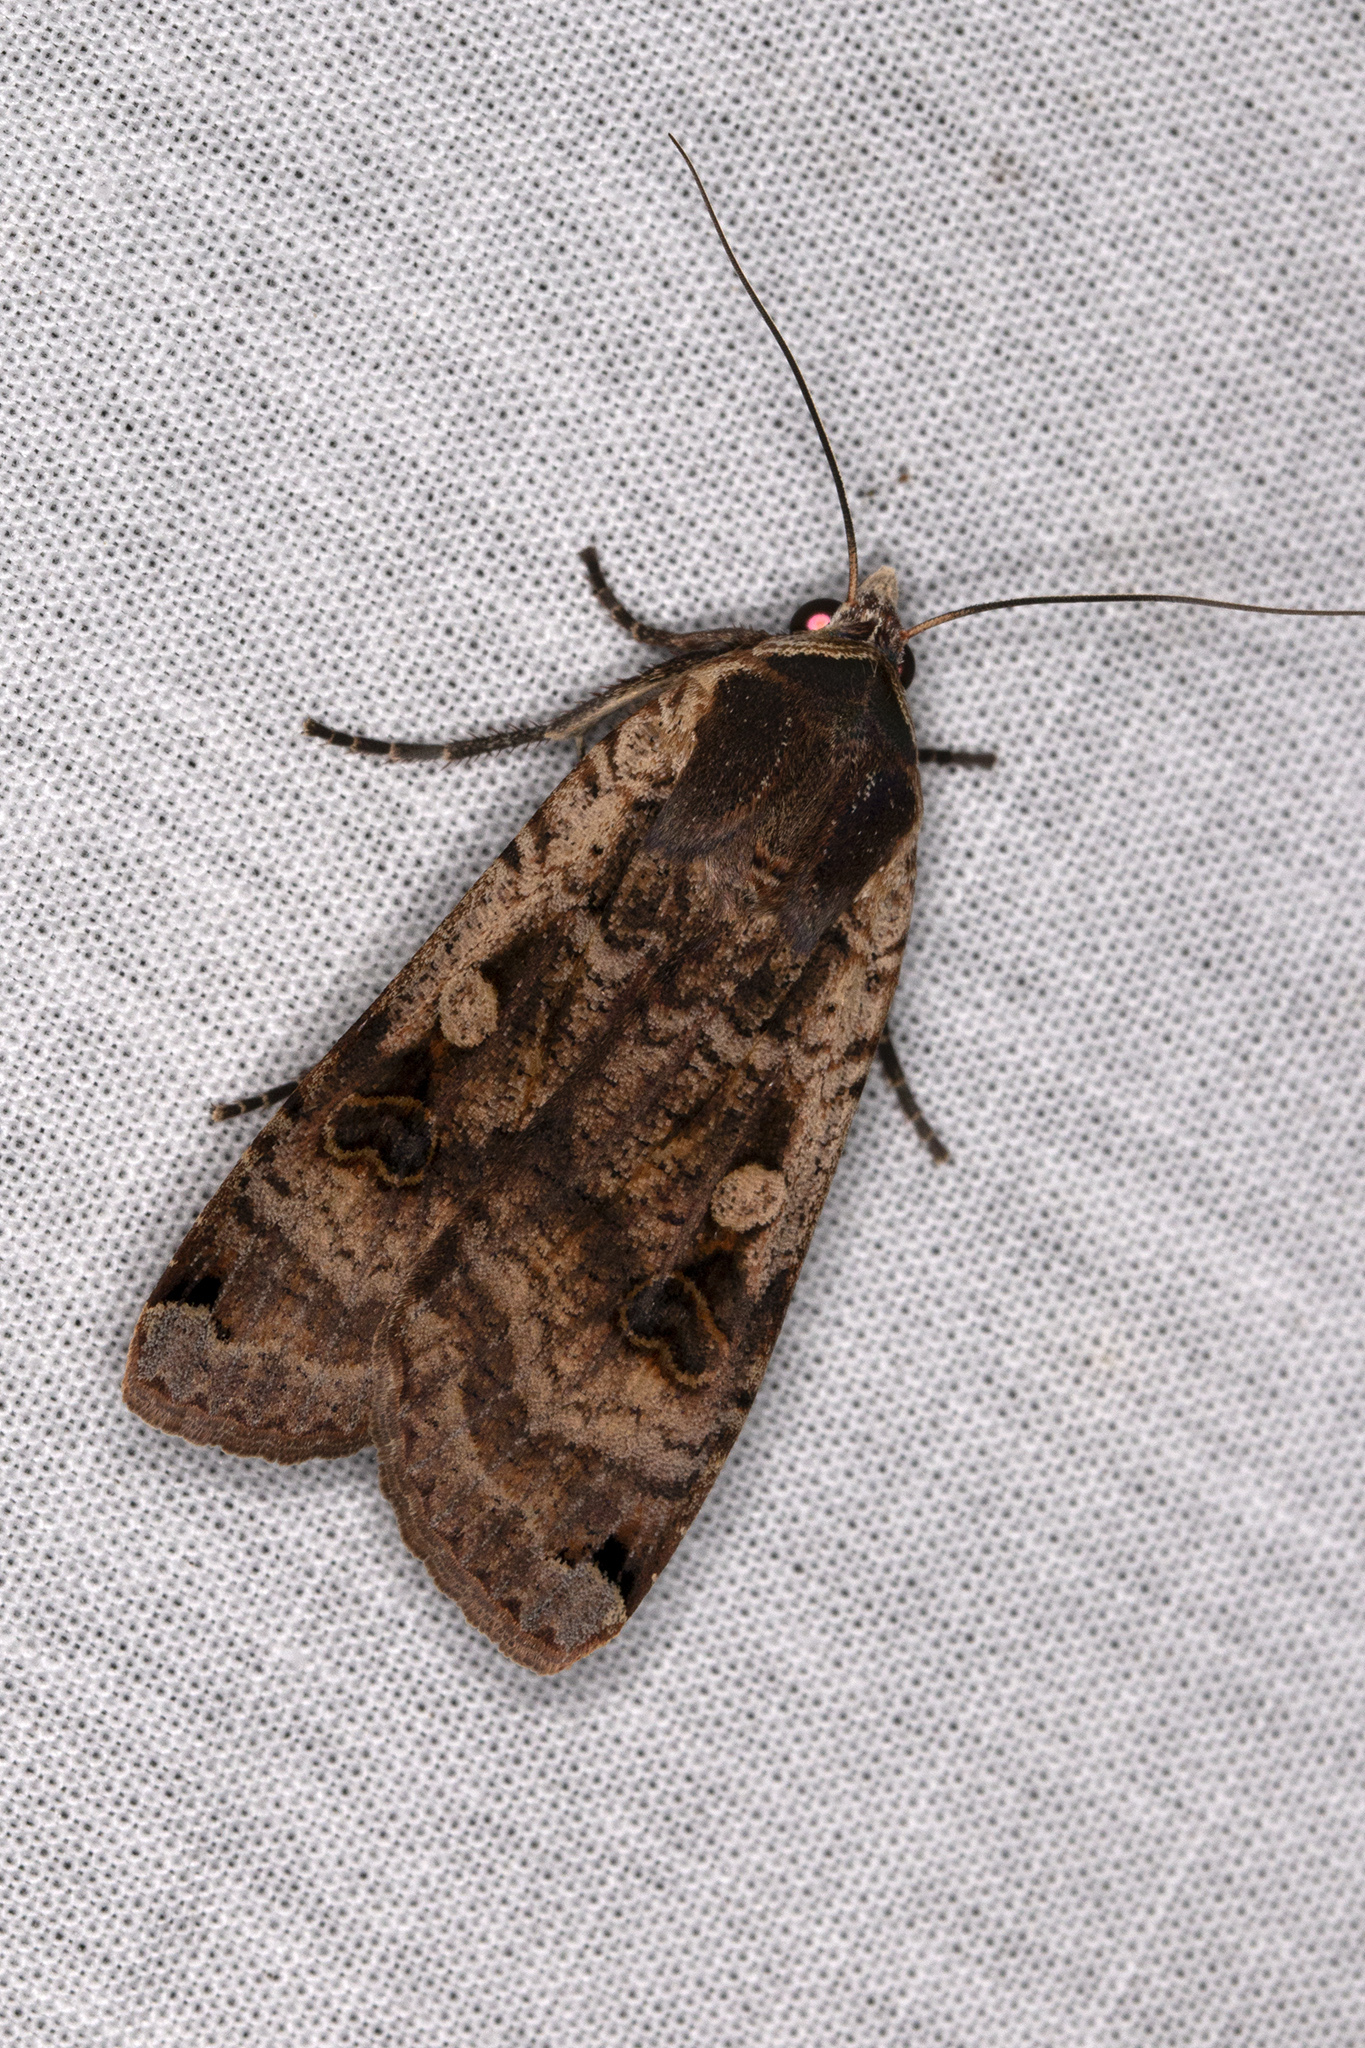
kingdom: Animalia
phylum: Arthropoda
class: Insecta
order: Lepidoptera
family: Noctuidae
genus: Noctua
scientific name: Noctua pronuba
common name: Large yellow underwing
